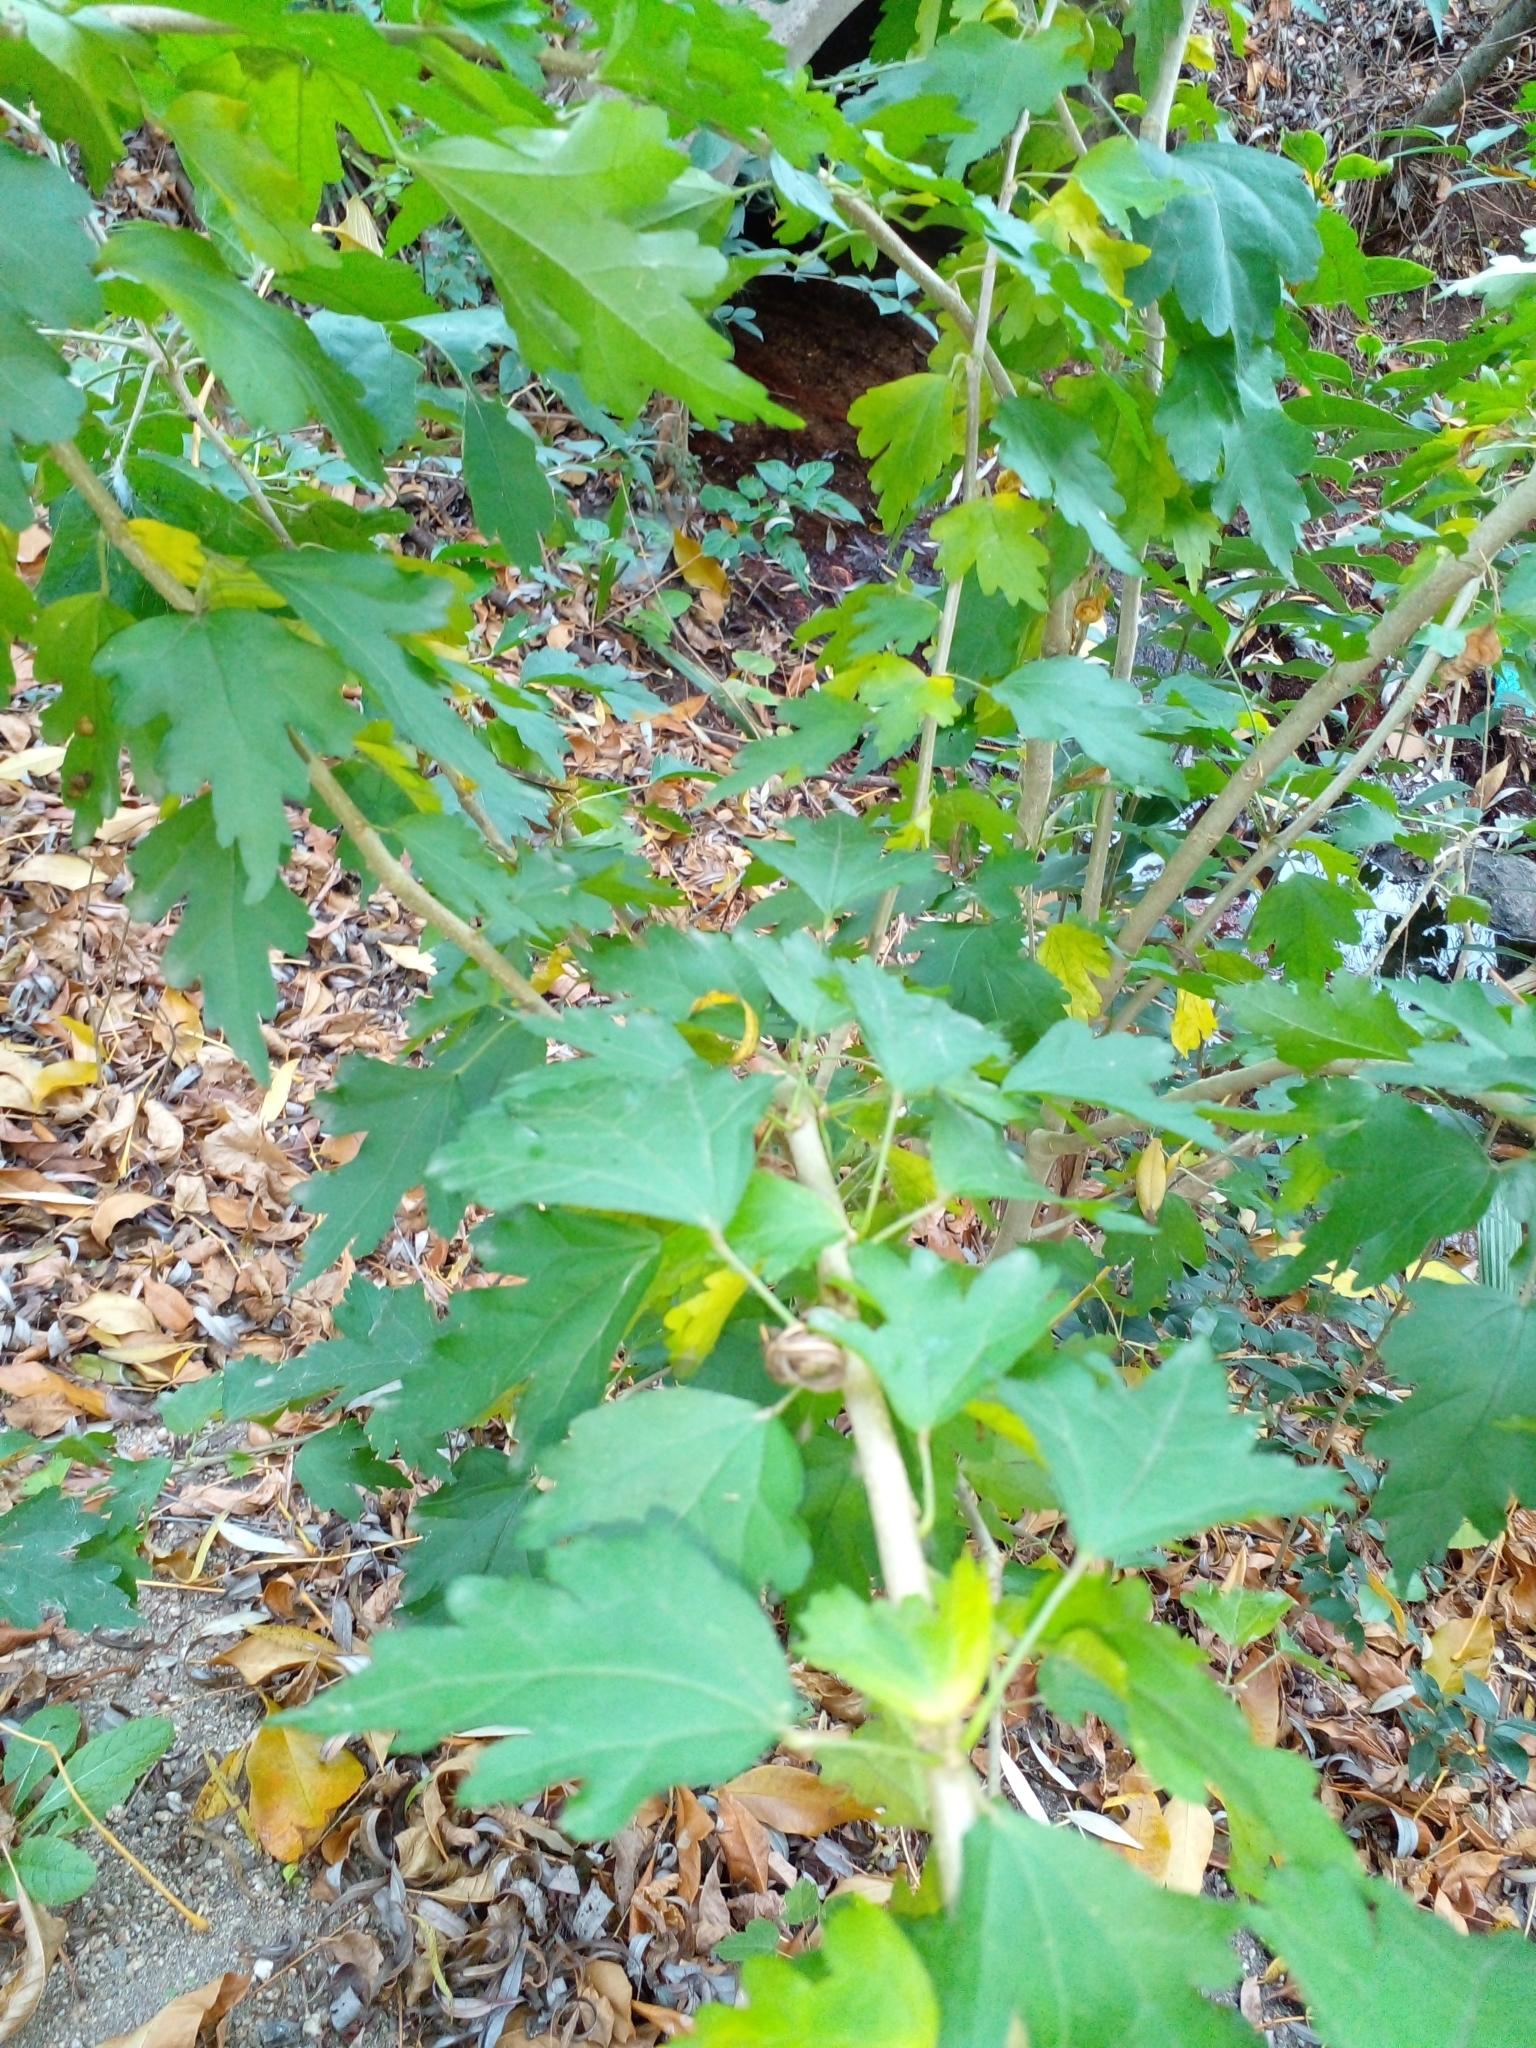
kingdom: Plantae
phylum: Tracheophyta
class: Magnoliopsida
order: Malvales
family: Malvaceae
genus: Hibiscus
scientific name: Hibiscus syriacus
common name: Syrian ketmia
